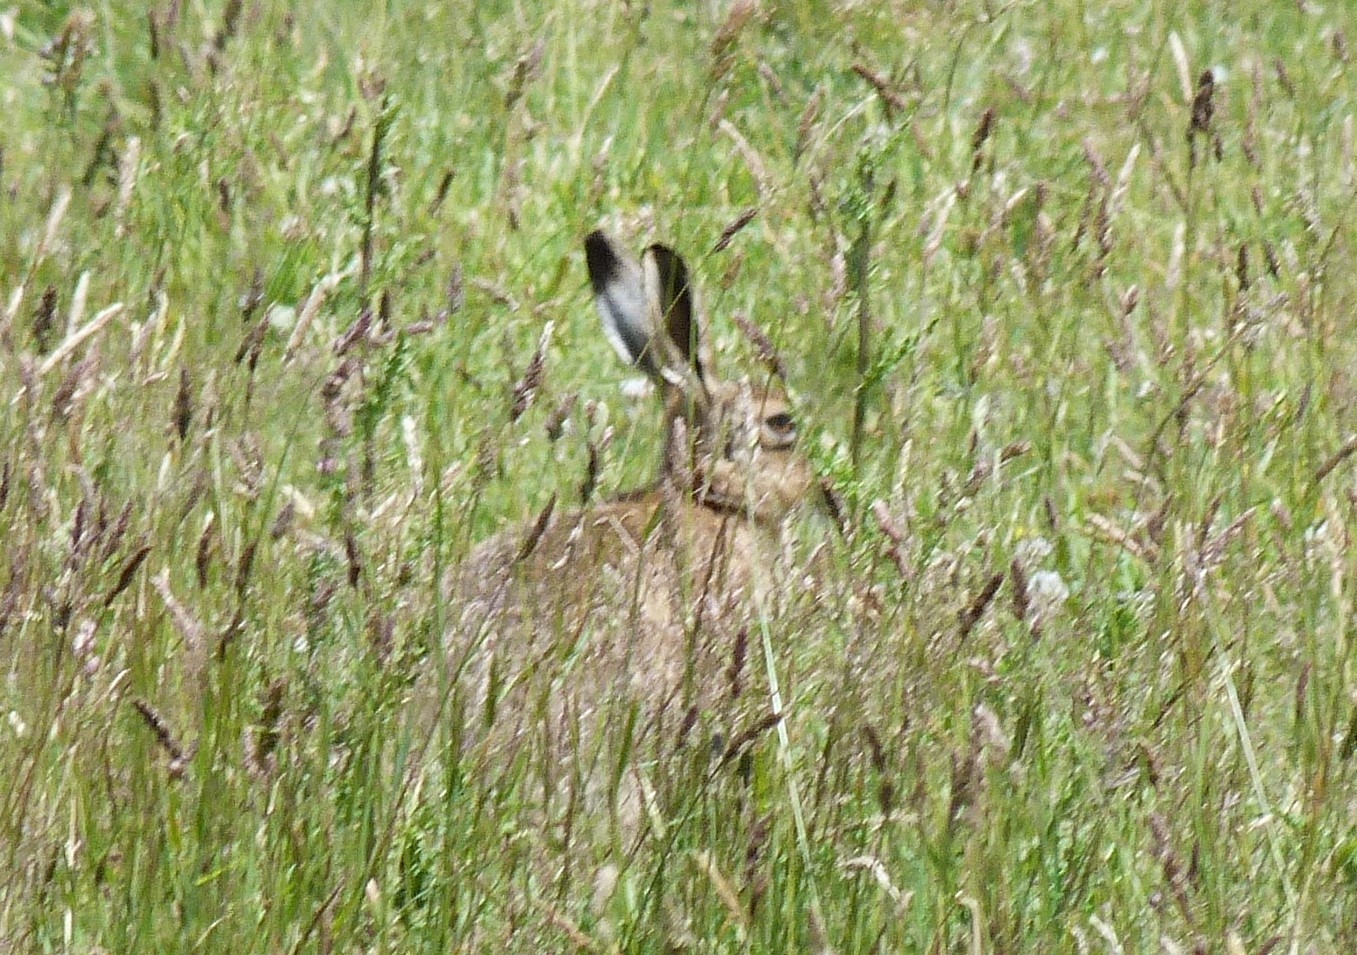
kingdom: Animalia
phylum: Chordata
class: Mammalia
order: Lagomorpha
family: Leporidae
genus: Lepus
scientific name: Lepus europaeus
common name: European hare
